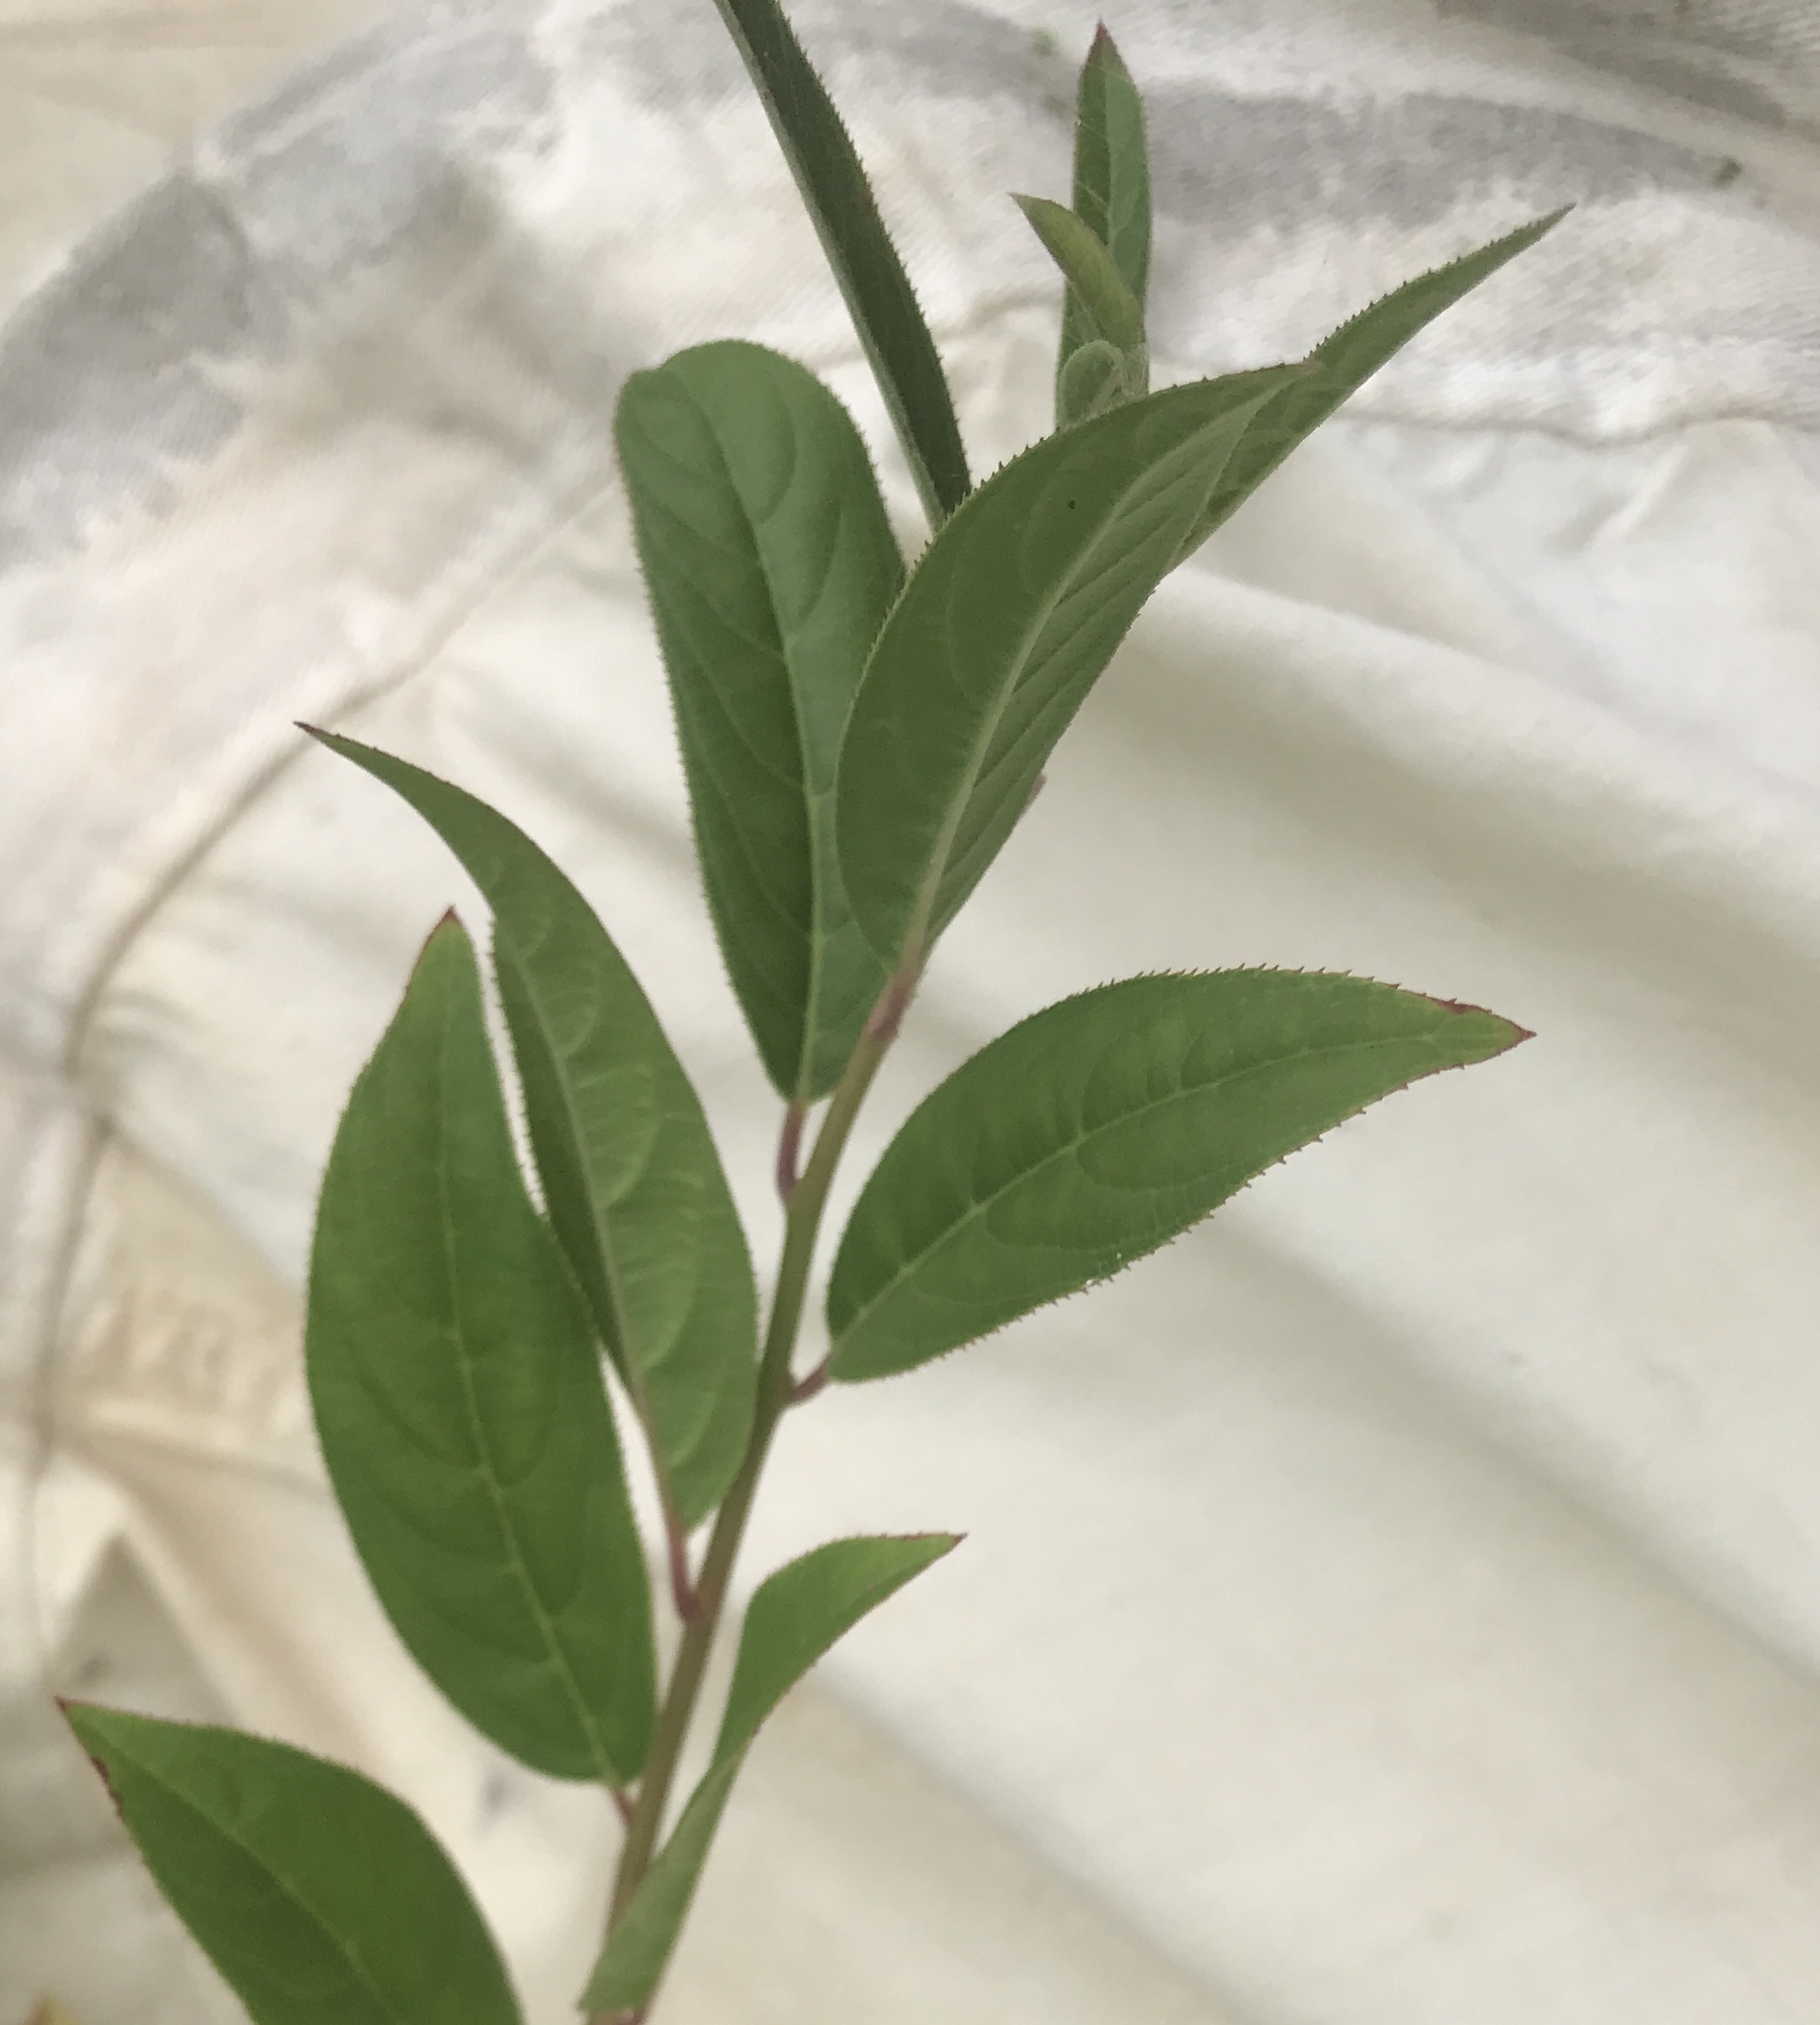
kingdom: Plantae
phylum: Tracheophyta
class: Magnoliopsida
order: Saxifragales
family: Iteaceae
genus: Itea
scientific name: Itea virginica
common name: Sweetspire
